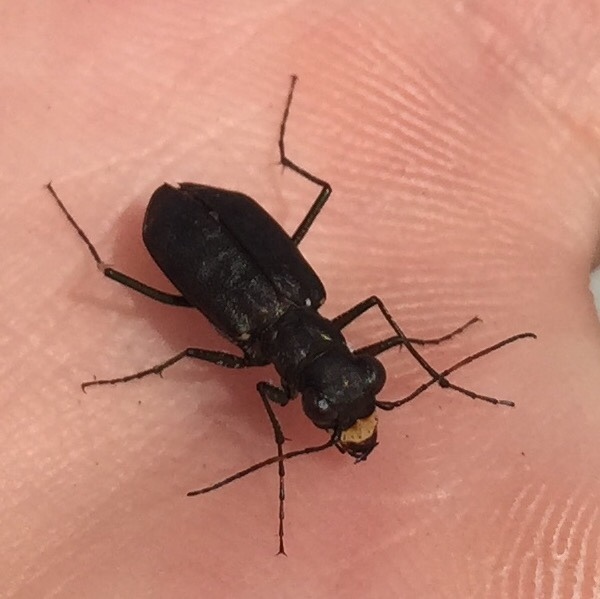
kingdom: Animalia
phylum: Arthropoda
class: Insecta
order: Coleoptera
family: Carabidae
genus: Cicindela
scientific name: Cicindela punctulata
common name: Punctured tiger beetle
